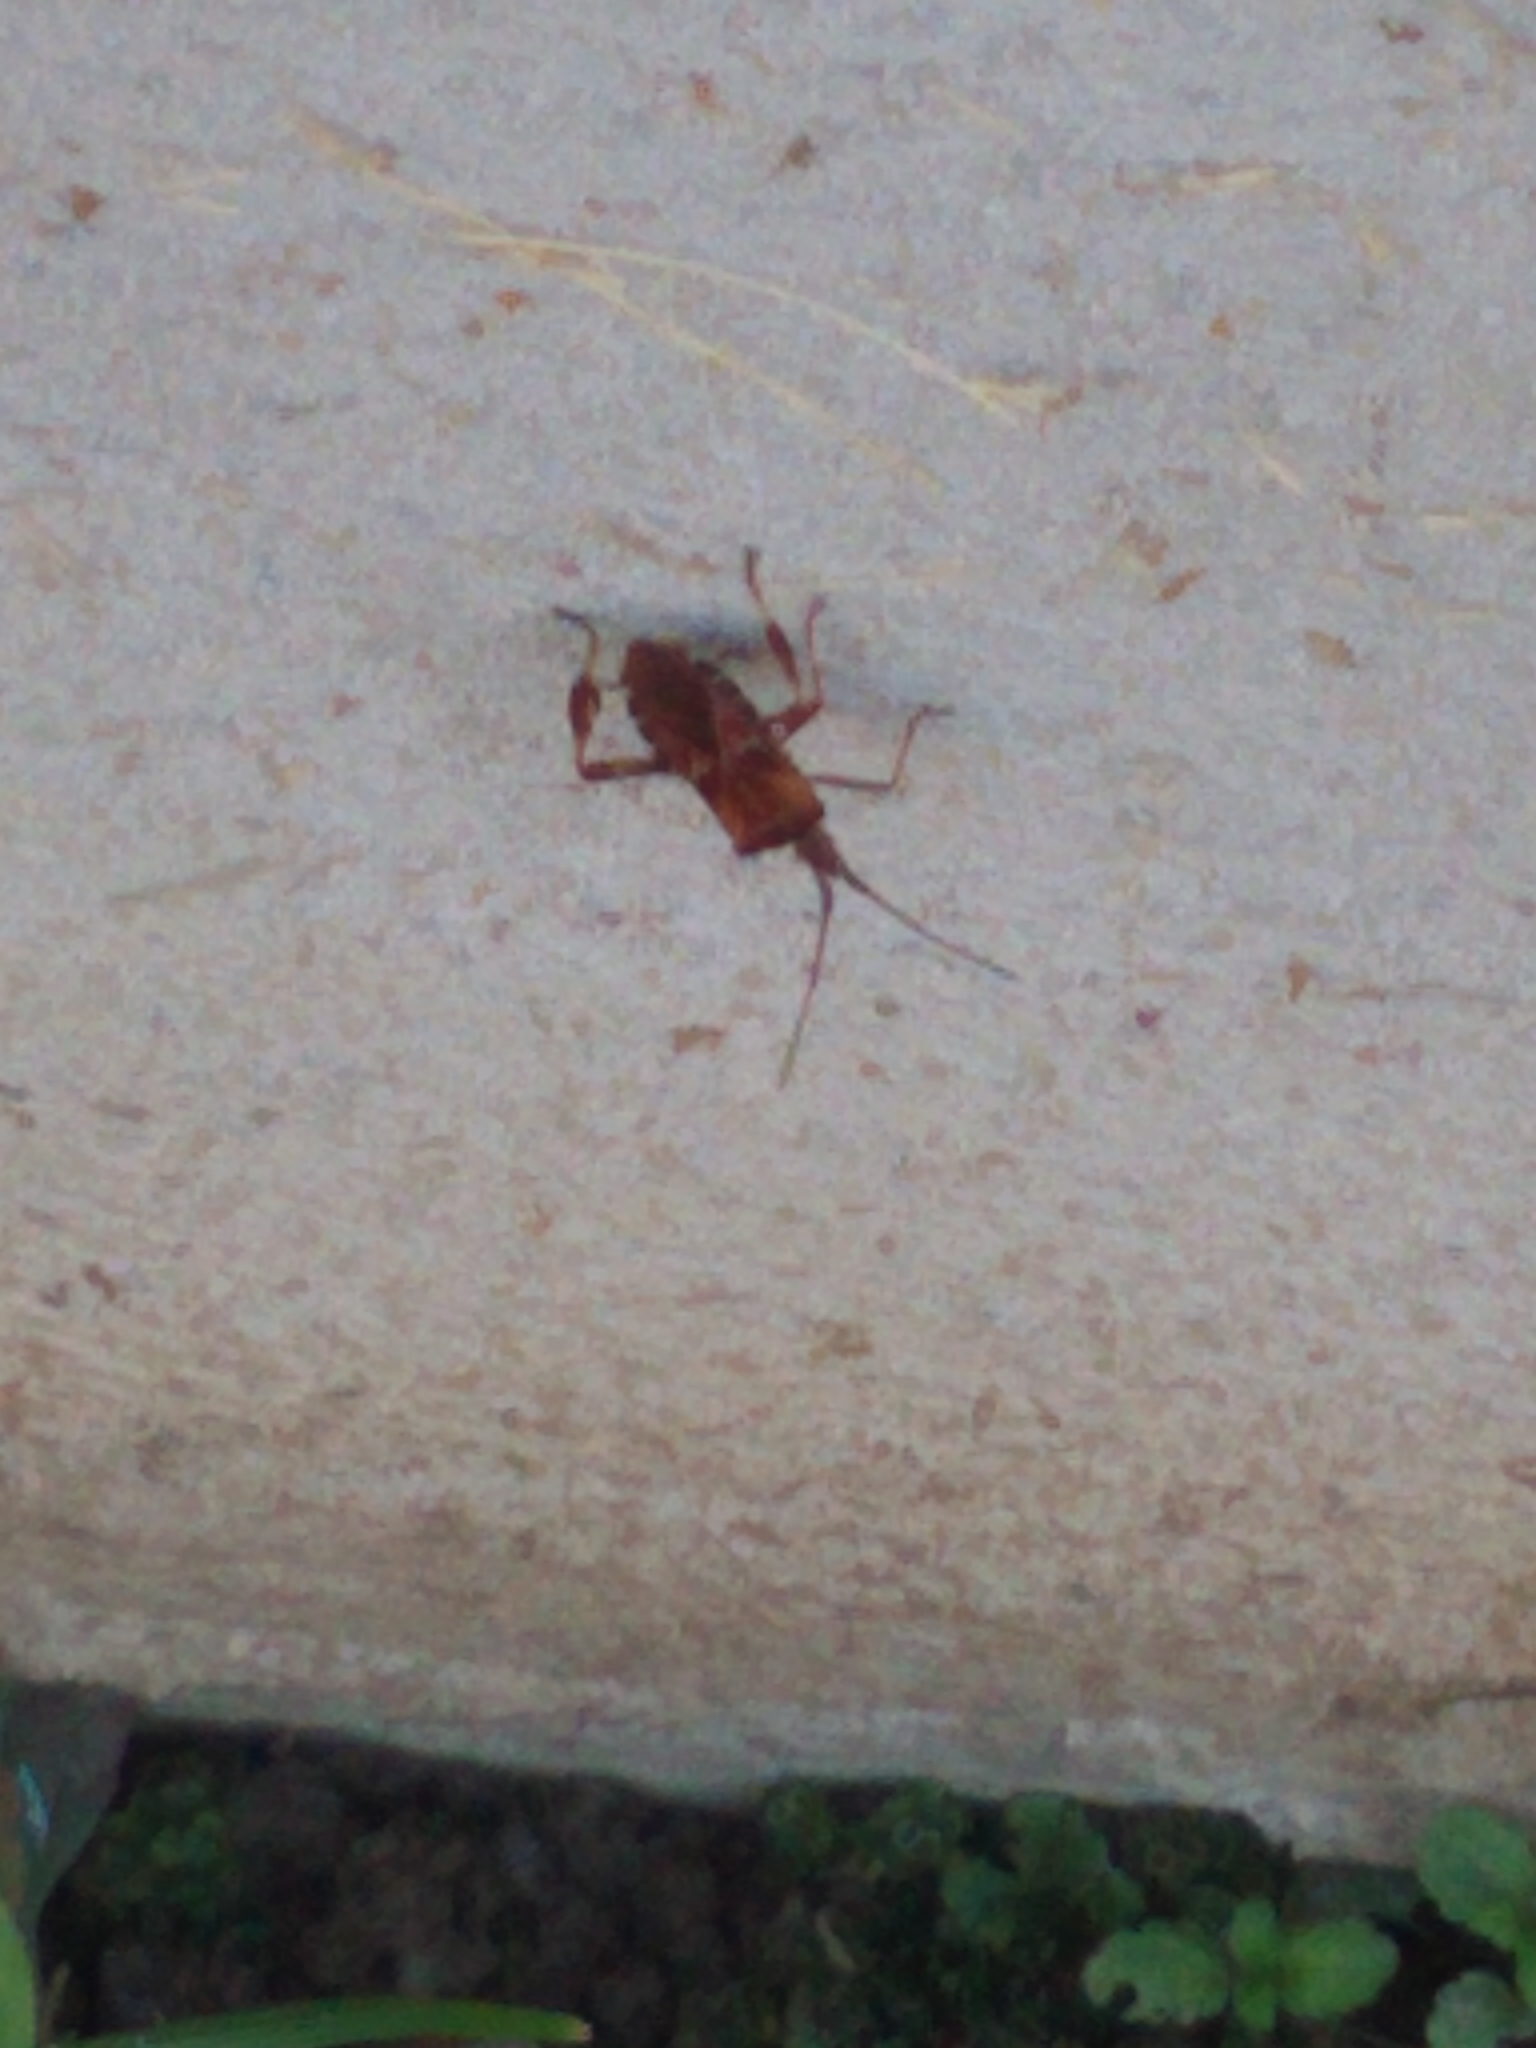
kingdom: Animalia
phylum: Arthropoda
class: Insecta
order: Hemiptera
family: Coreidae
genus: Leptoglossus
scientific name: Leptoglossus occidentalis
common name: Western conifer-seed bug
